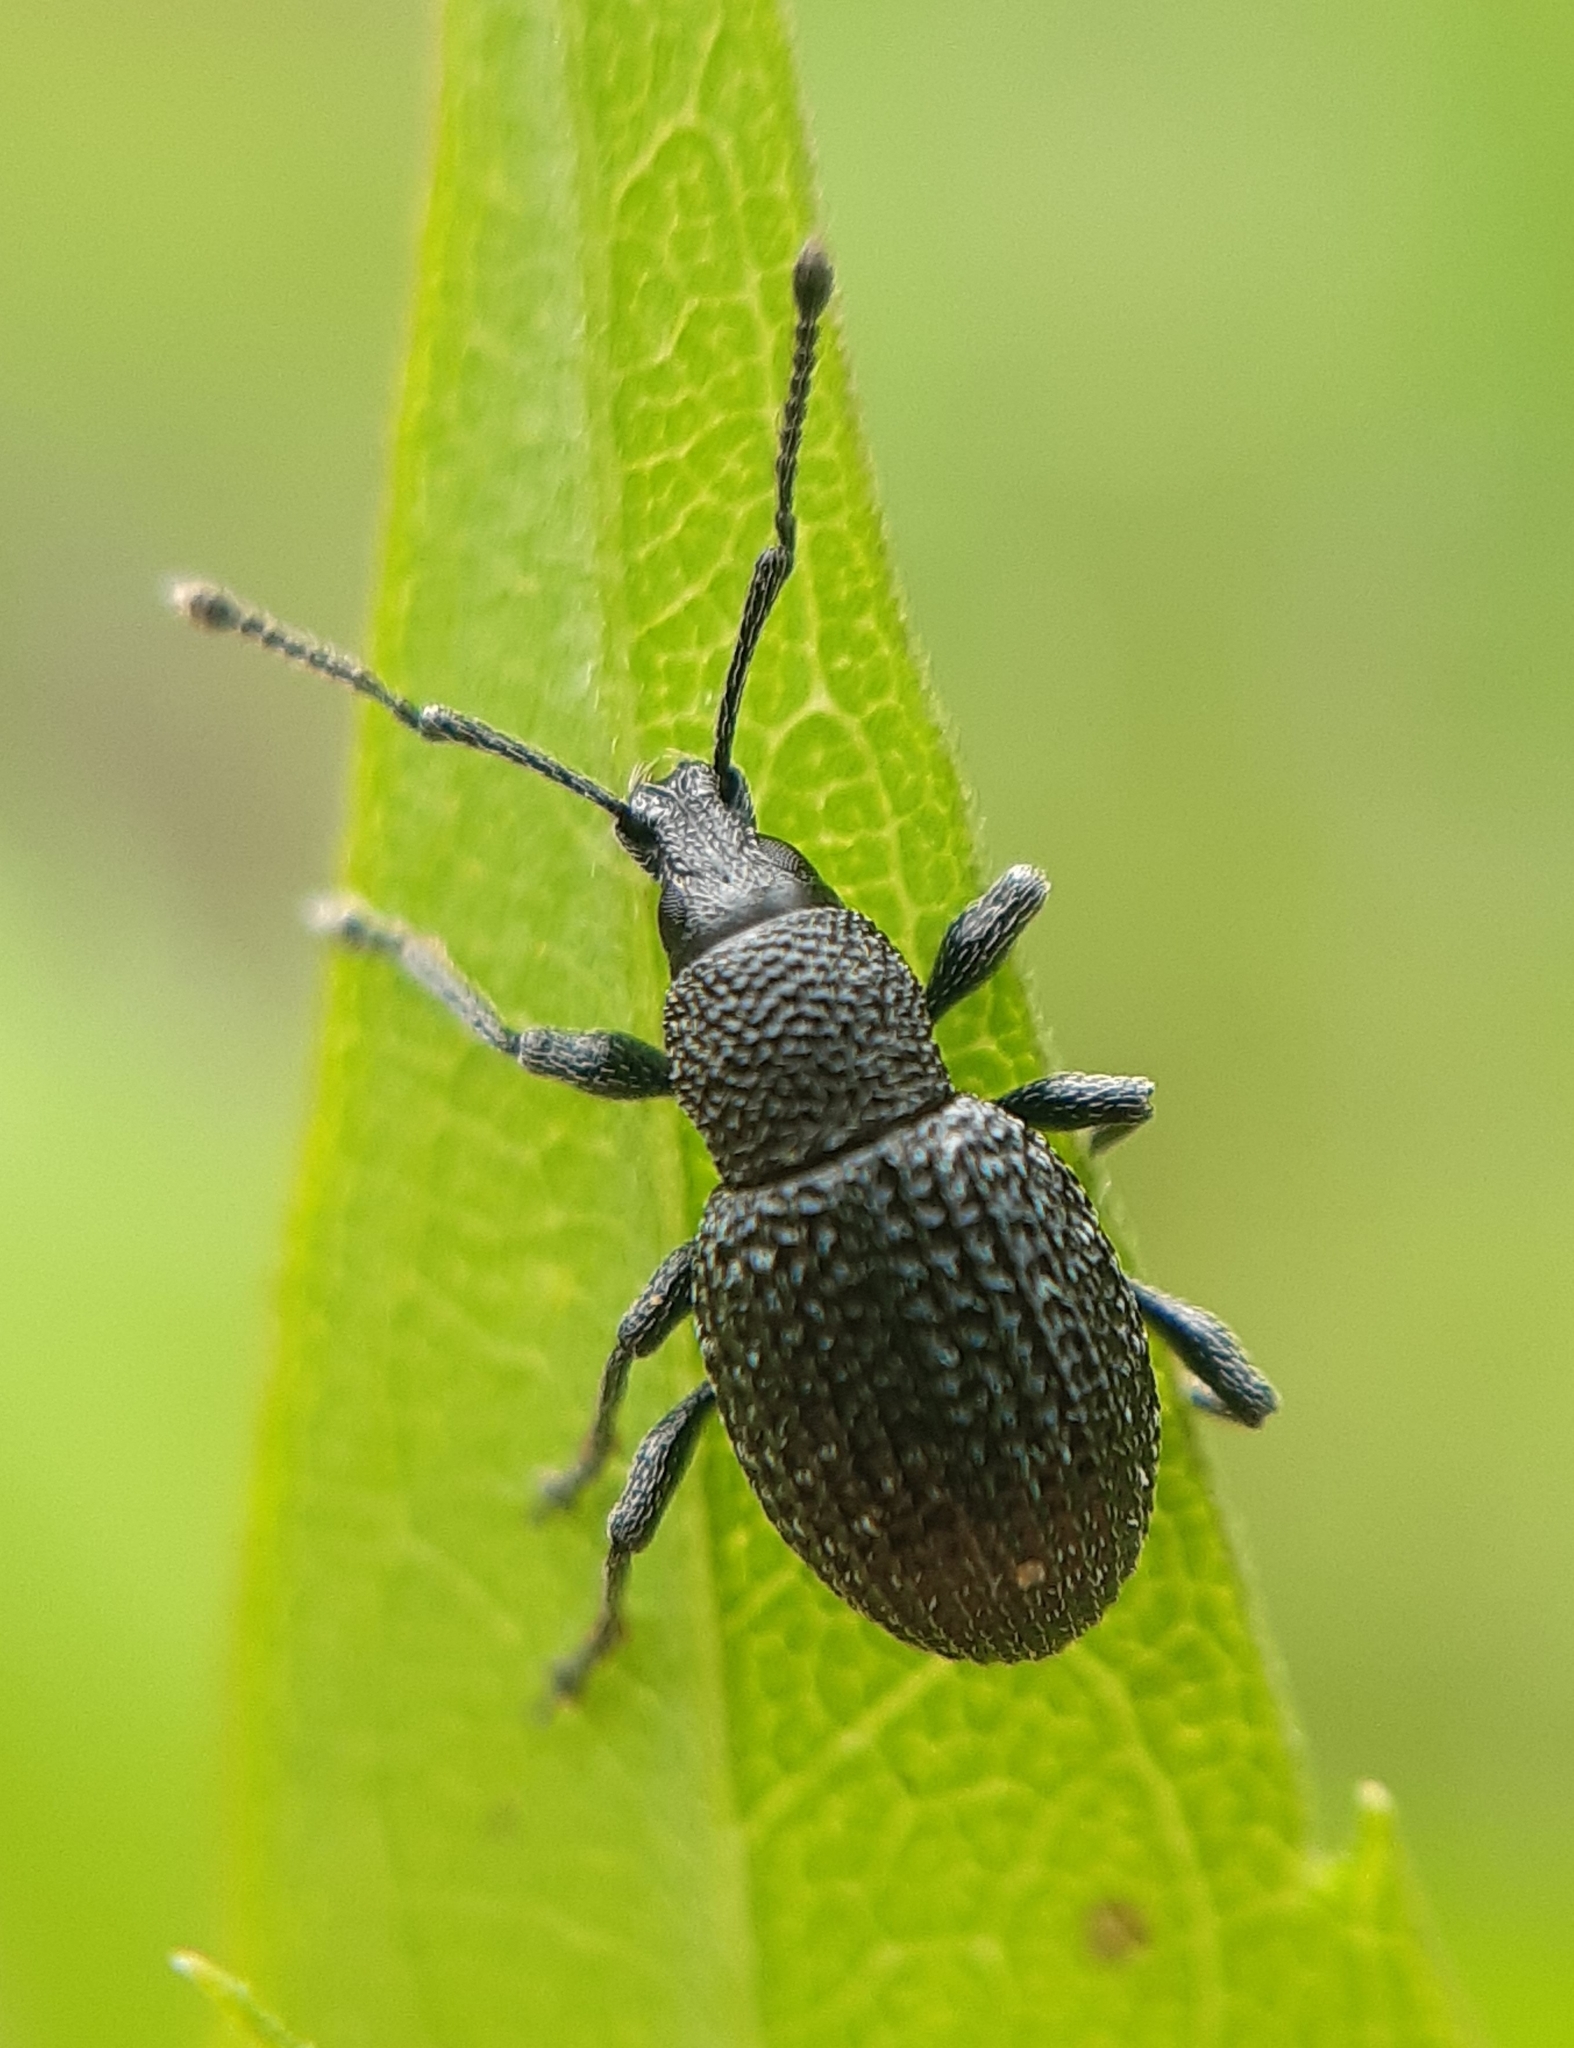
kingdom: Animalia
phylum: Arthropoda
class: Insecta
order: Coleoptera
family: Curculionidae
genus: Otiorhynchus
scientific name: Otiorhynchus pinastri
